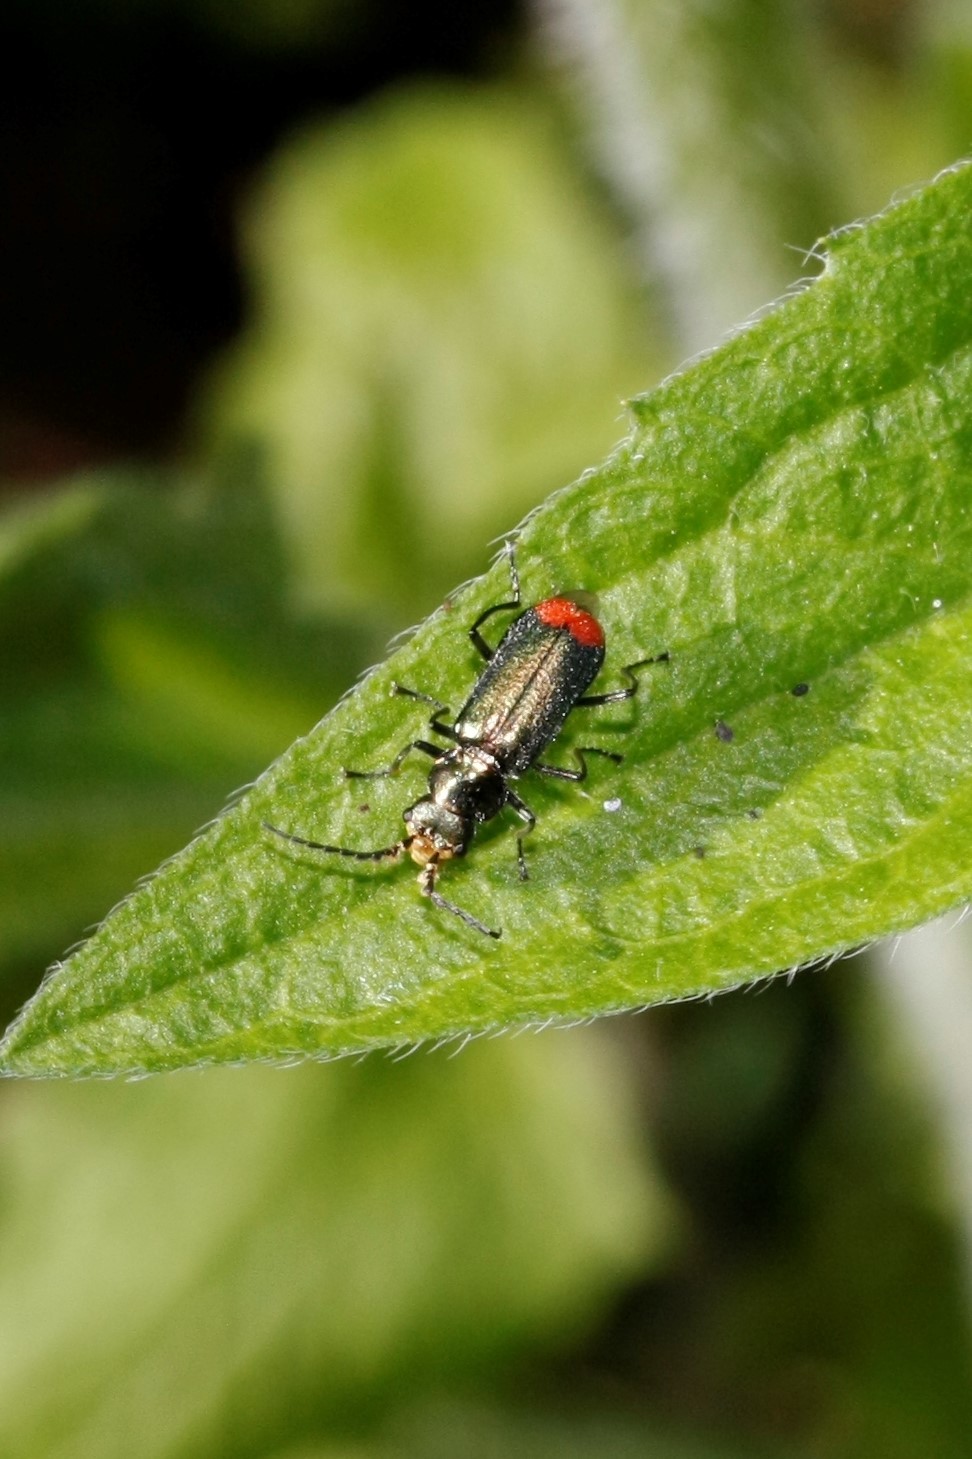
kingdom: Animalia
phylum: Arthropoda
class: Insecta
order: Coleoptera
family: Melyridae
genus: Malachius
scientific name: Malachius bipustulatus
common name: Malachite beetle
